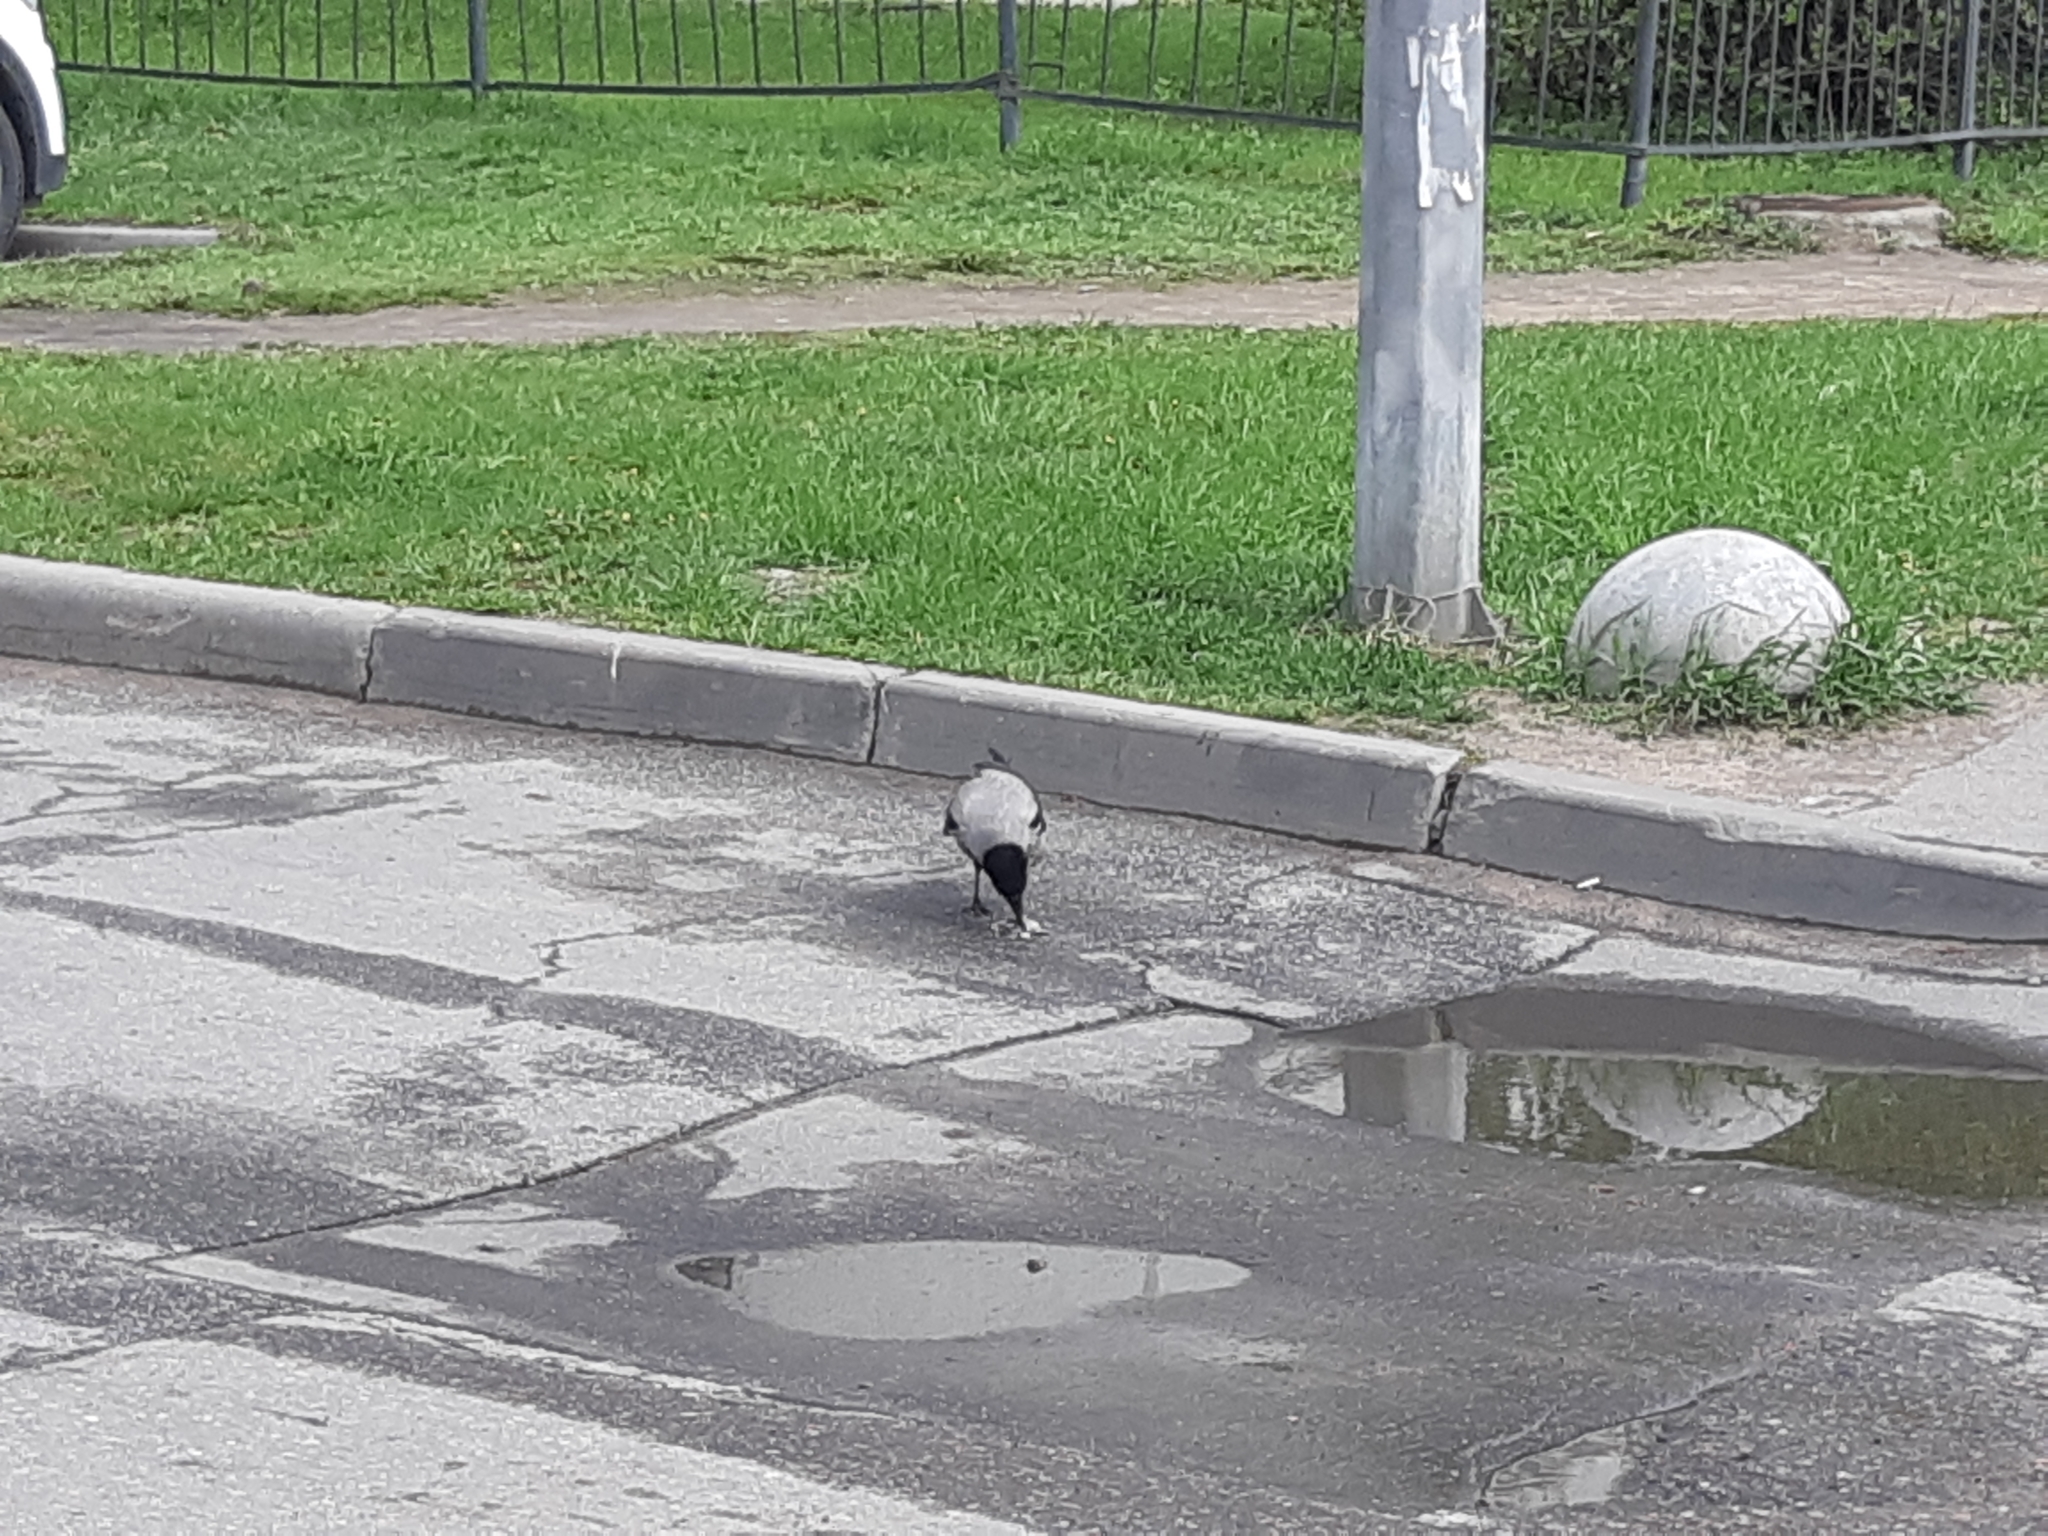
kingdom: Animalia
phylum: Chordata
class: Aves
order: Passeriformes
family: Corvidae
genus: Corvus
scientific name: Corvus cornix
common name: Hooded crow
